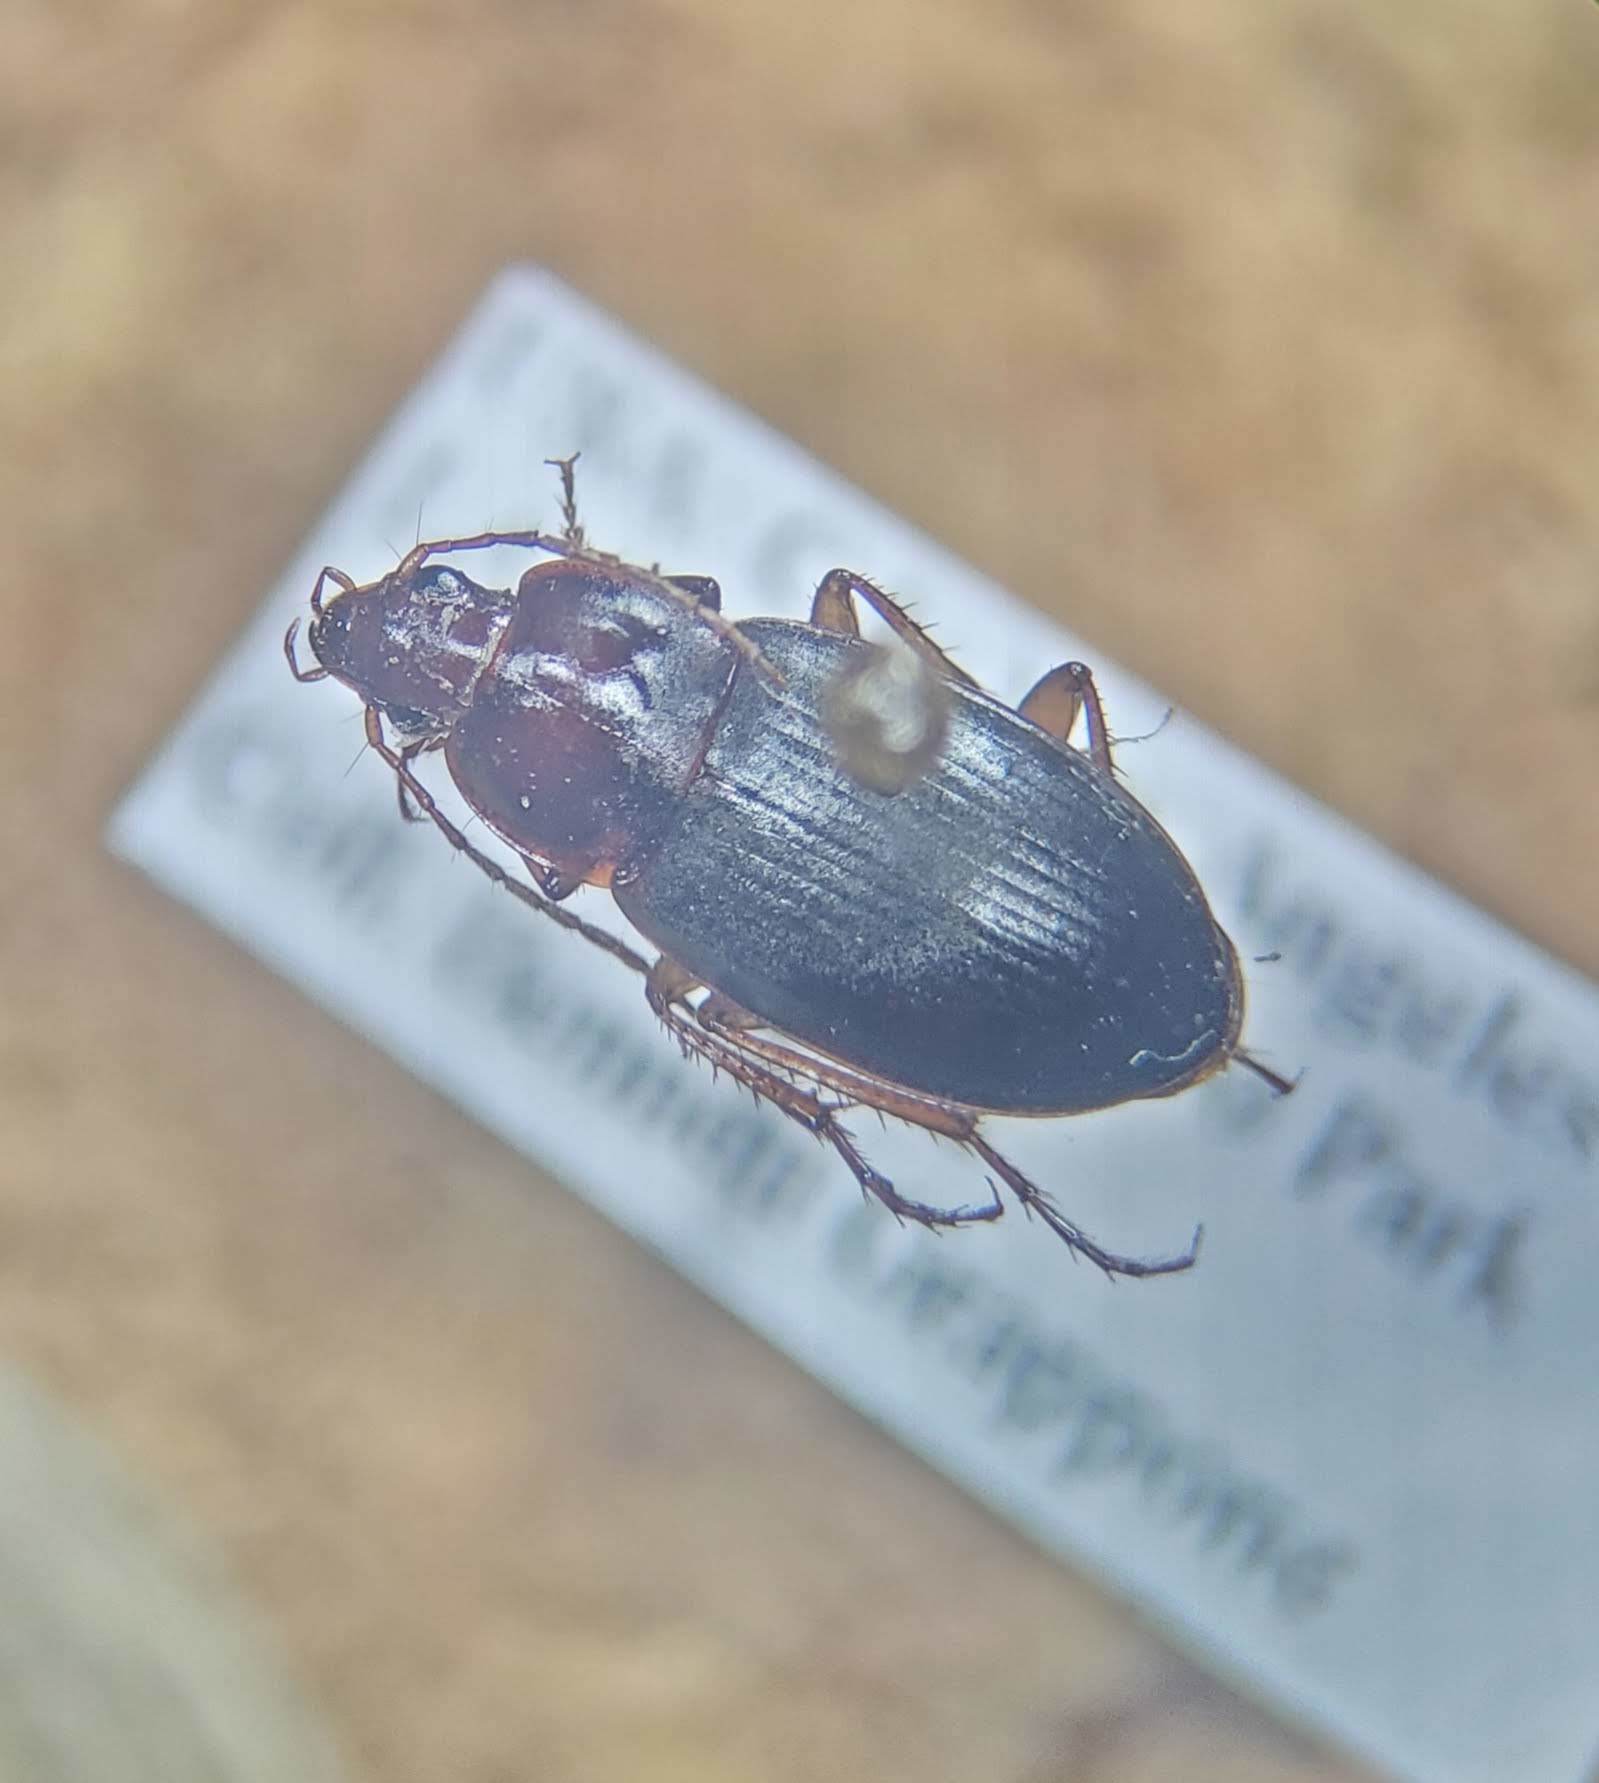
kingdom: Animalia
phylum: Arthropoda
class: Insecta
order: Coleoptera
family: Carabidae
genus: Calathus
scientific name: Calathus ruficollis
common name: Red-collared harp ground beetle
